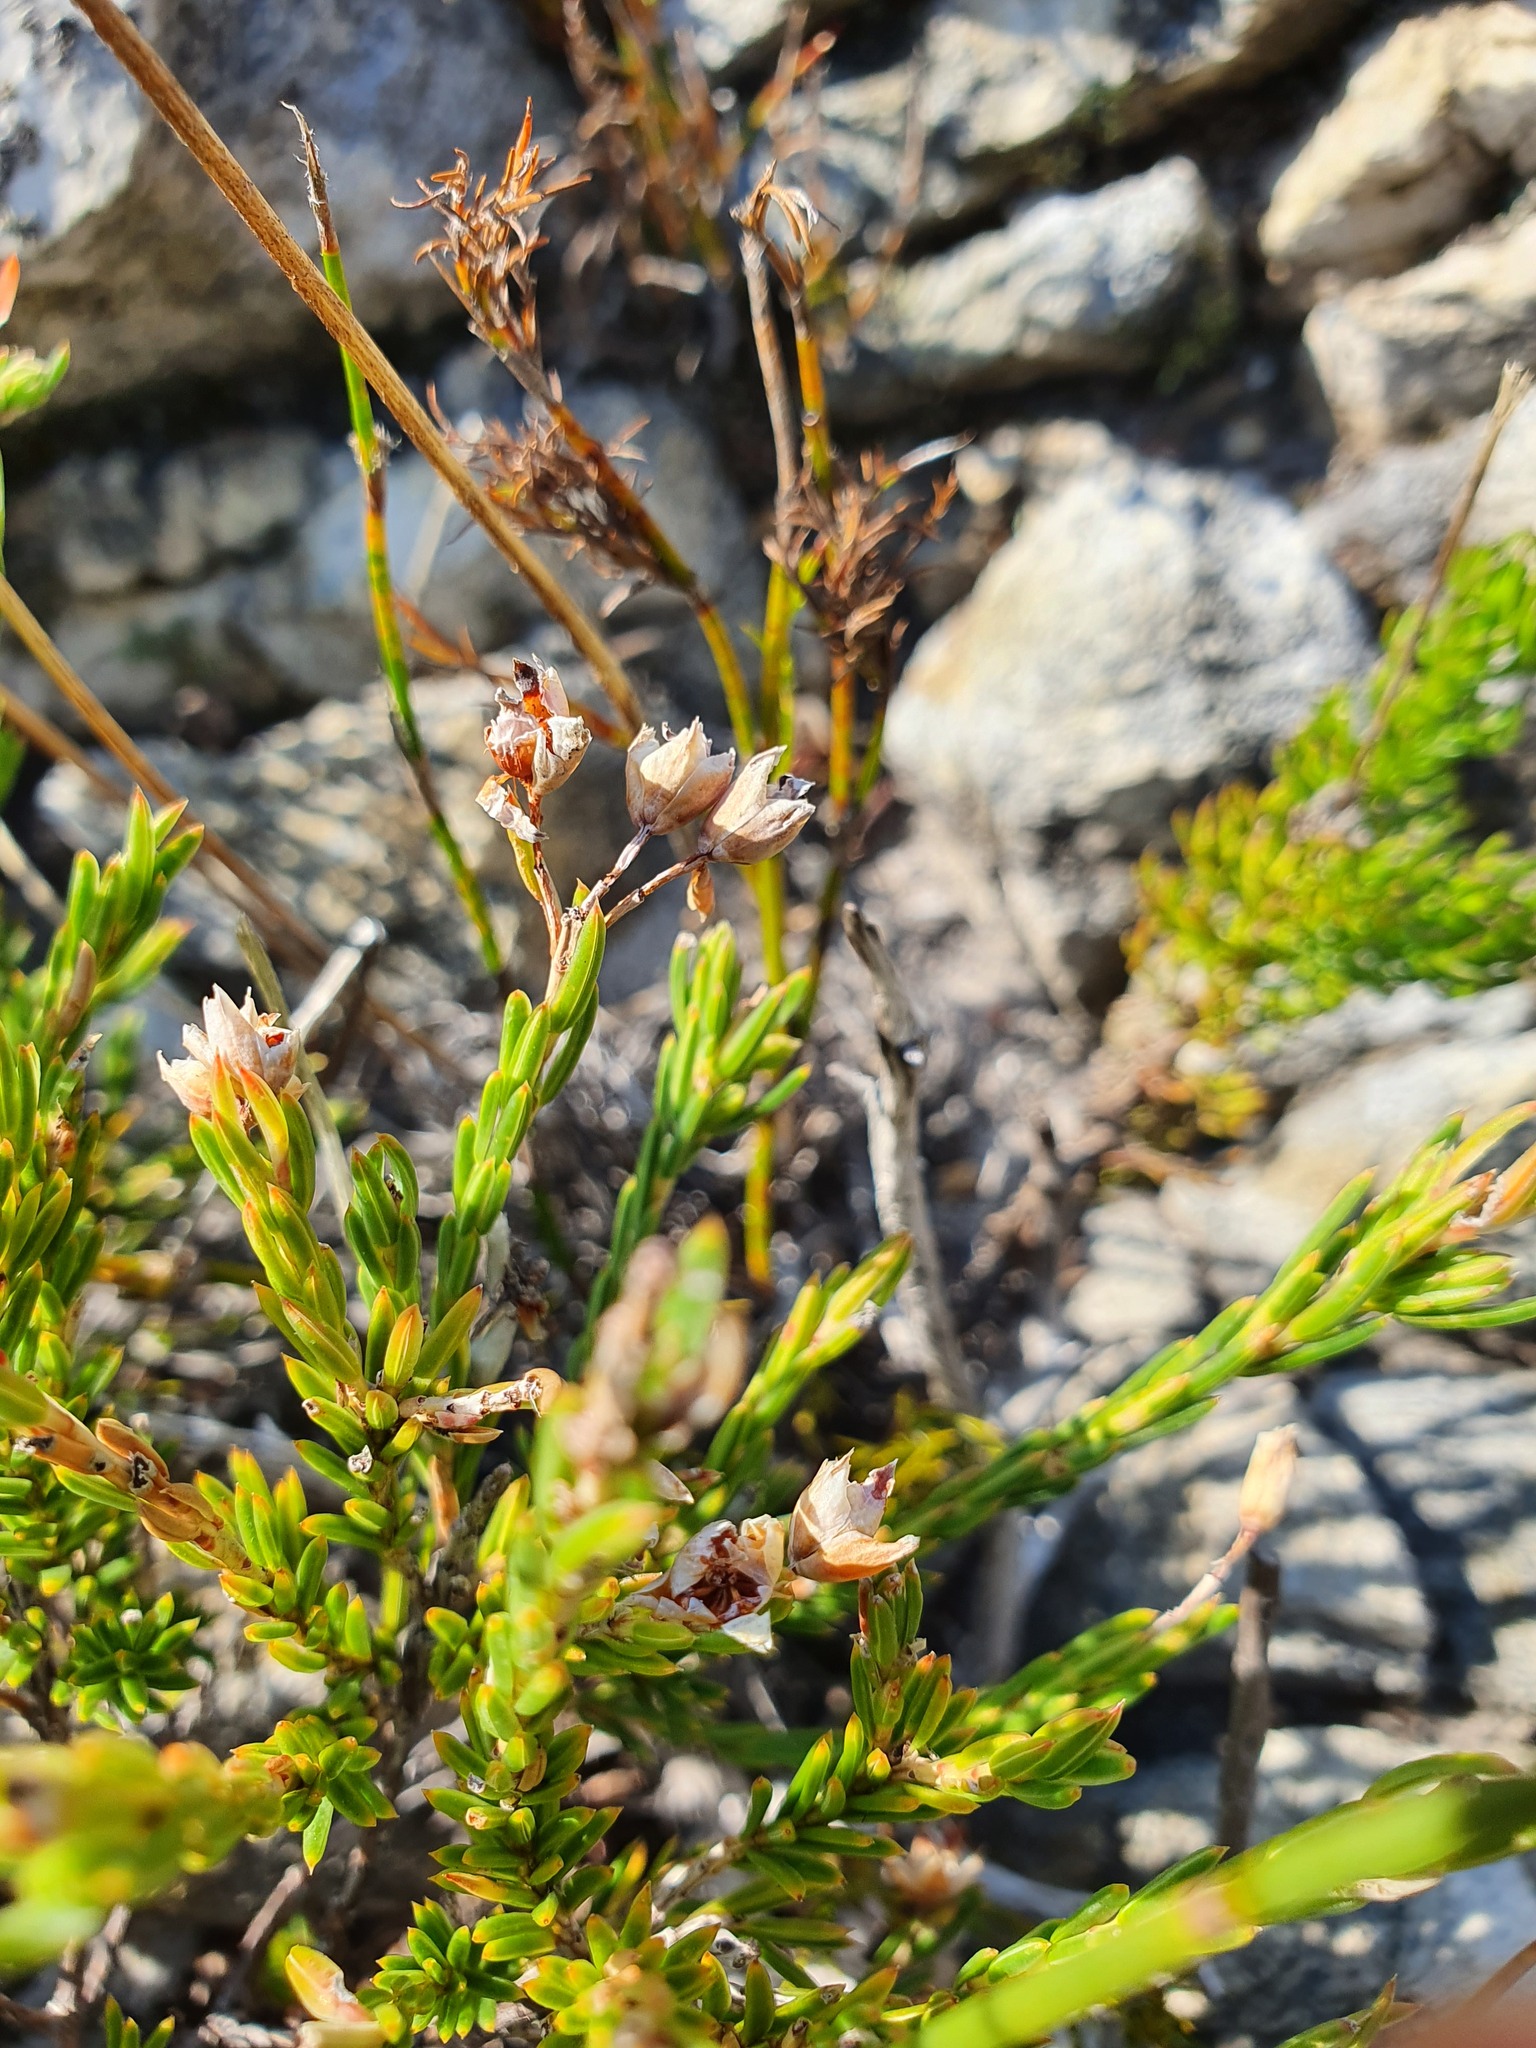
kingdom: Plantae
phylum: Tracheophyta
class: Magnoliopsida
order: Ericales
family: Ericaceae
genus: Erica
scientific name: Erica taxifolia
